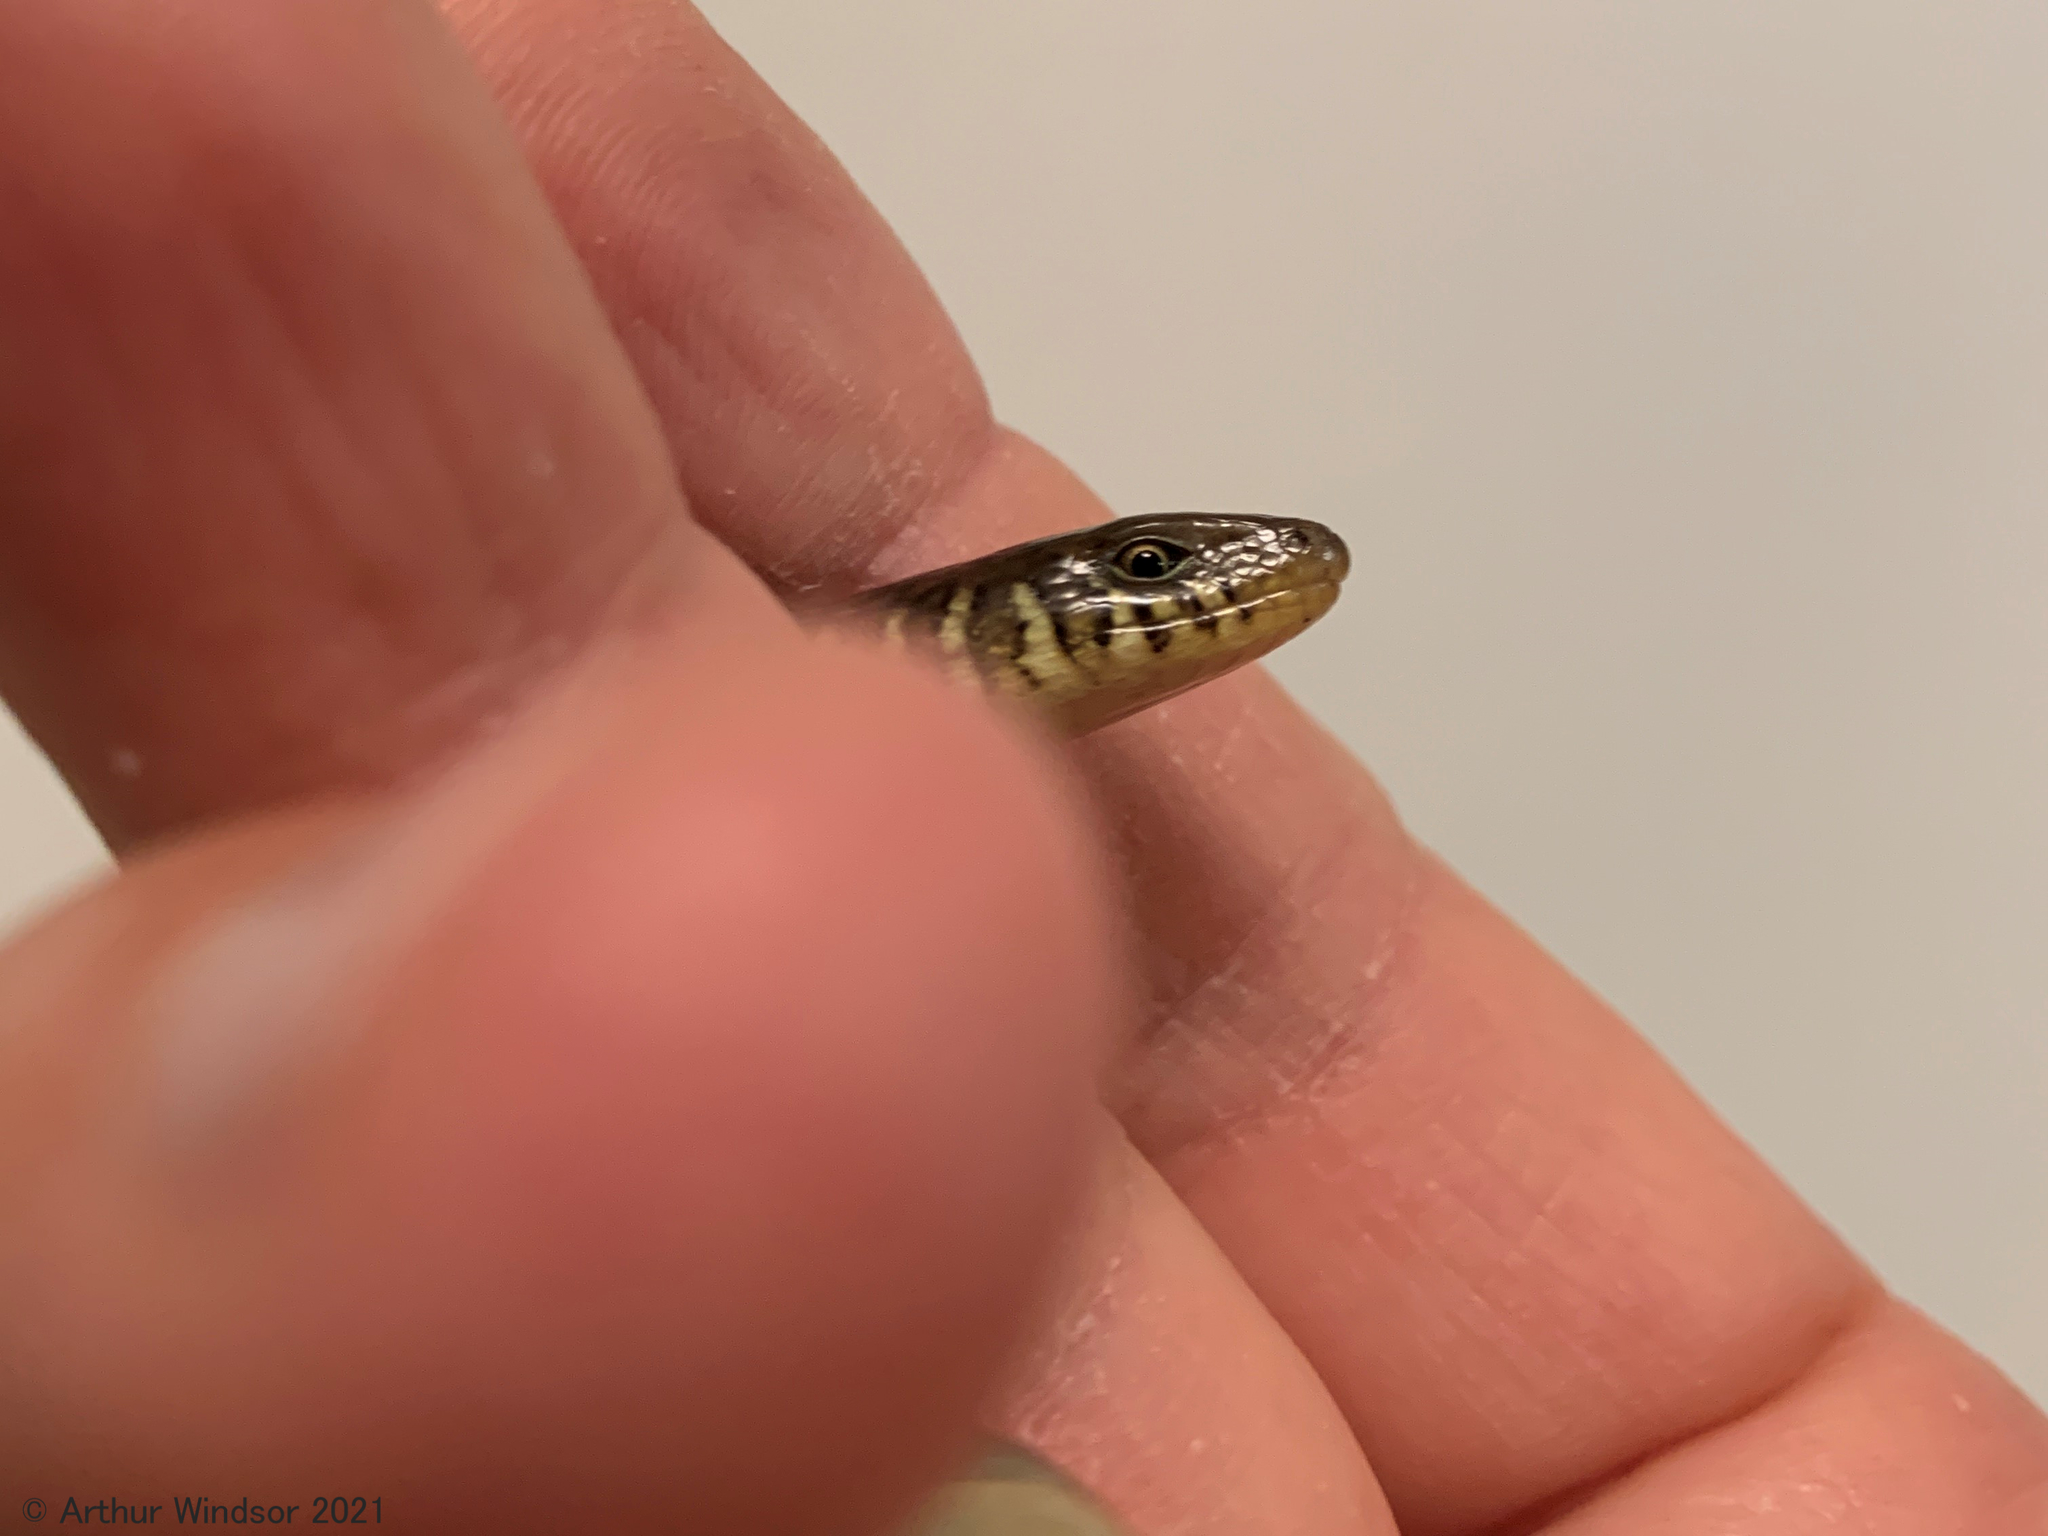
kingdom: Animalia
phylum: Chordata
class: Squamata
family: Anguidae
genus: Ophisaurus
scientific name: Ophisaurus ventralis
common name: Eastern glass lizard
